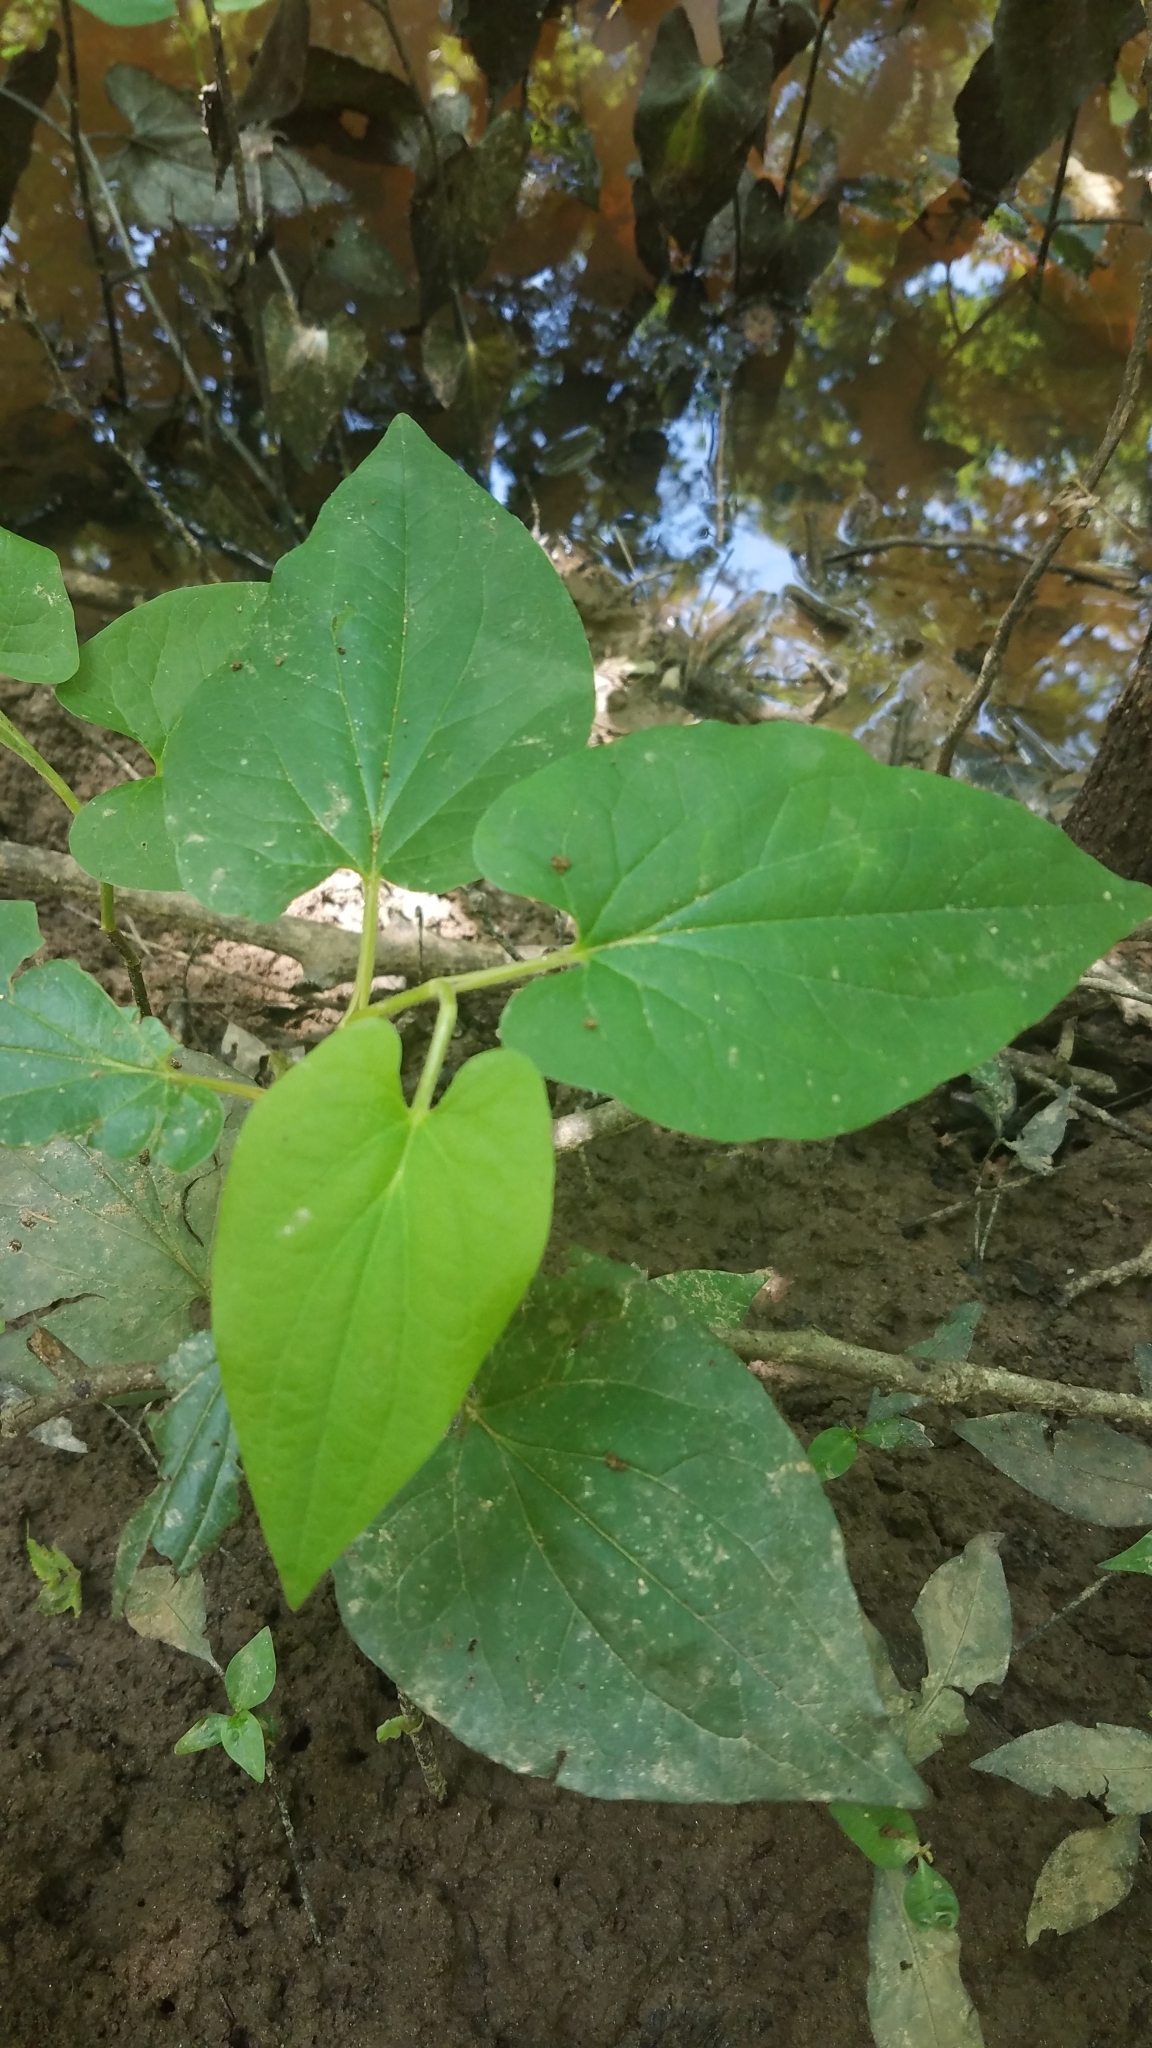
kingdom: Plantae
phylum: Tracheophyta
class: Magnoliopsida
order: Piperales
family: Saururaceae
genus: Saururus
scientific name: Saururus cernuus
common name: Lizard's-tail
